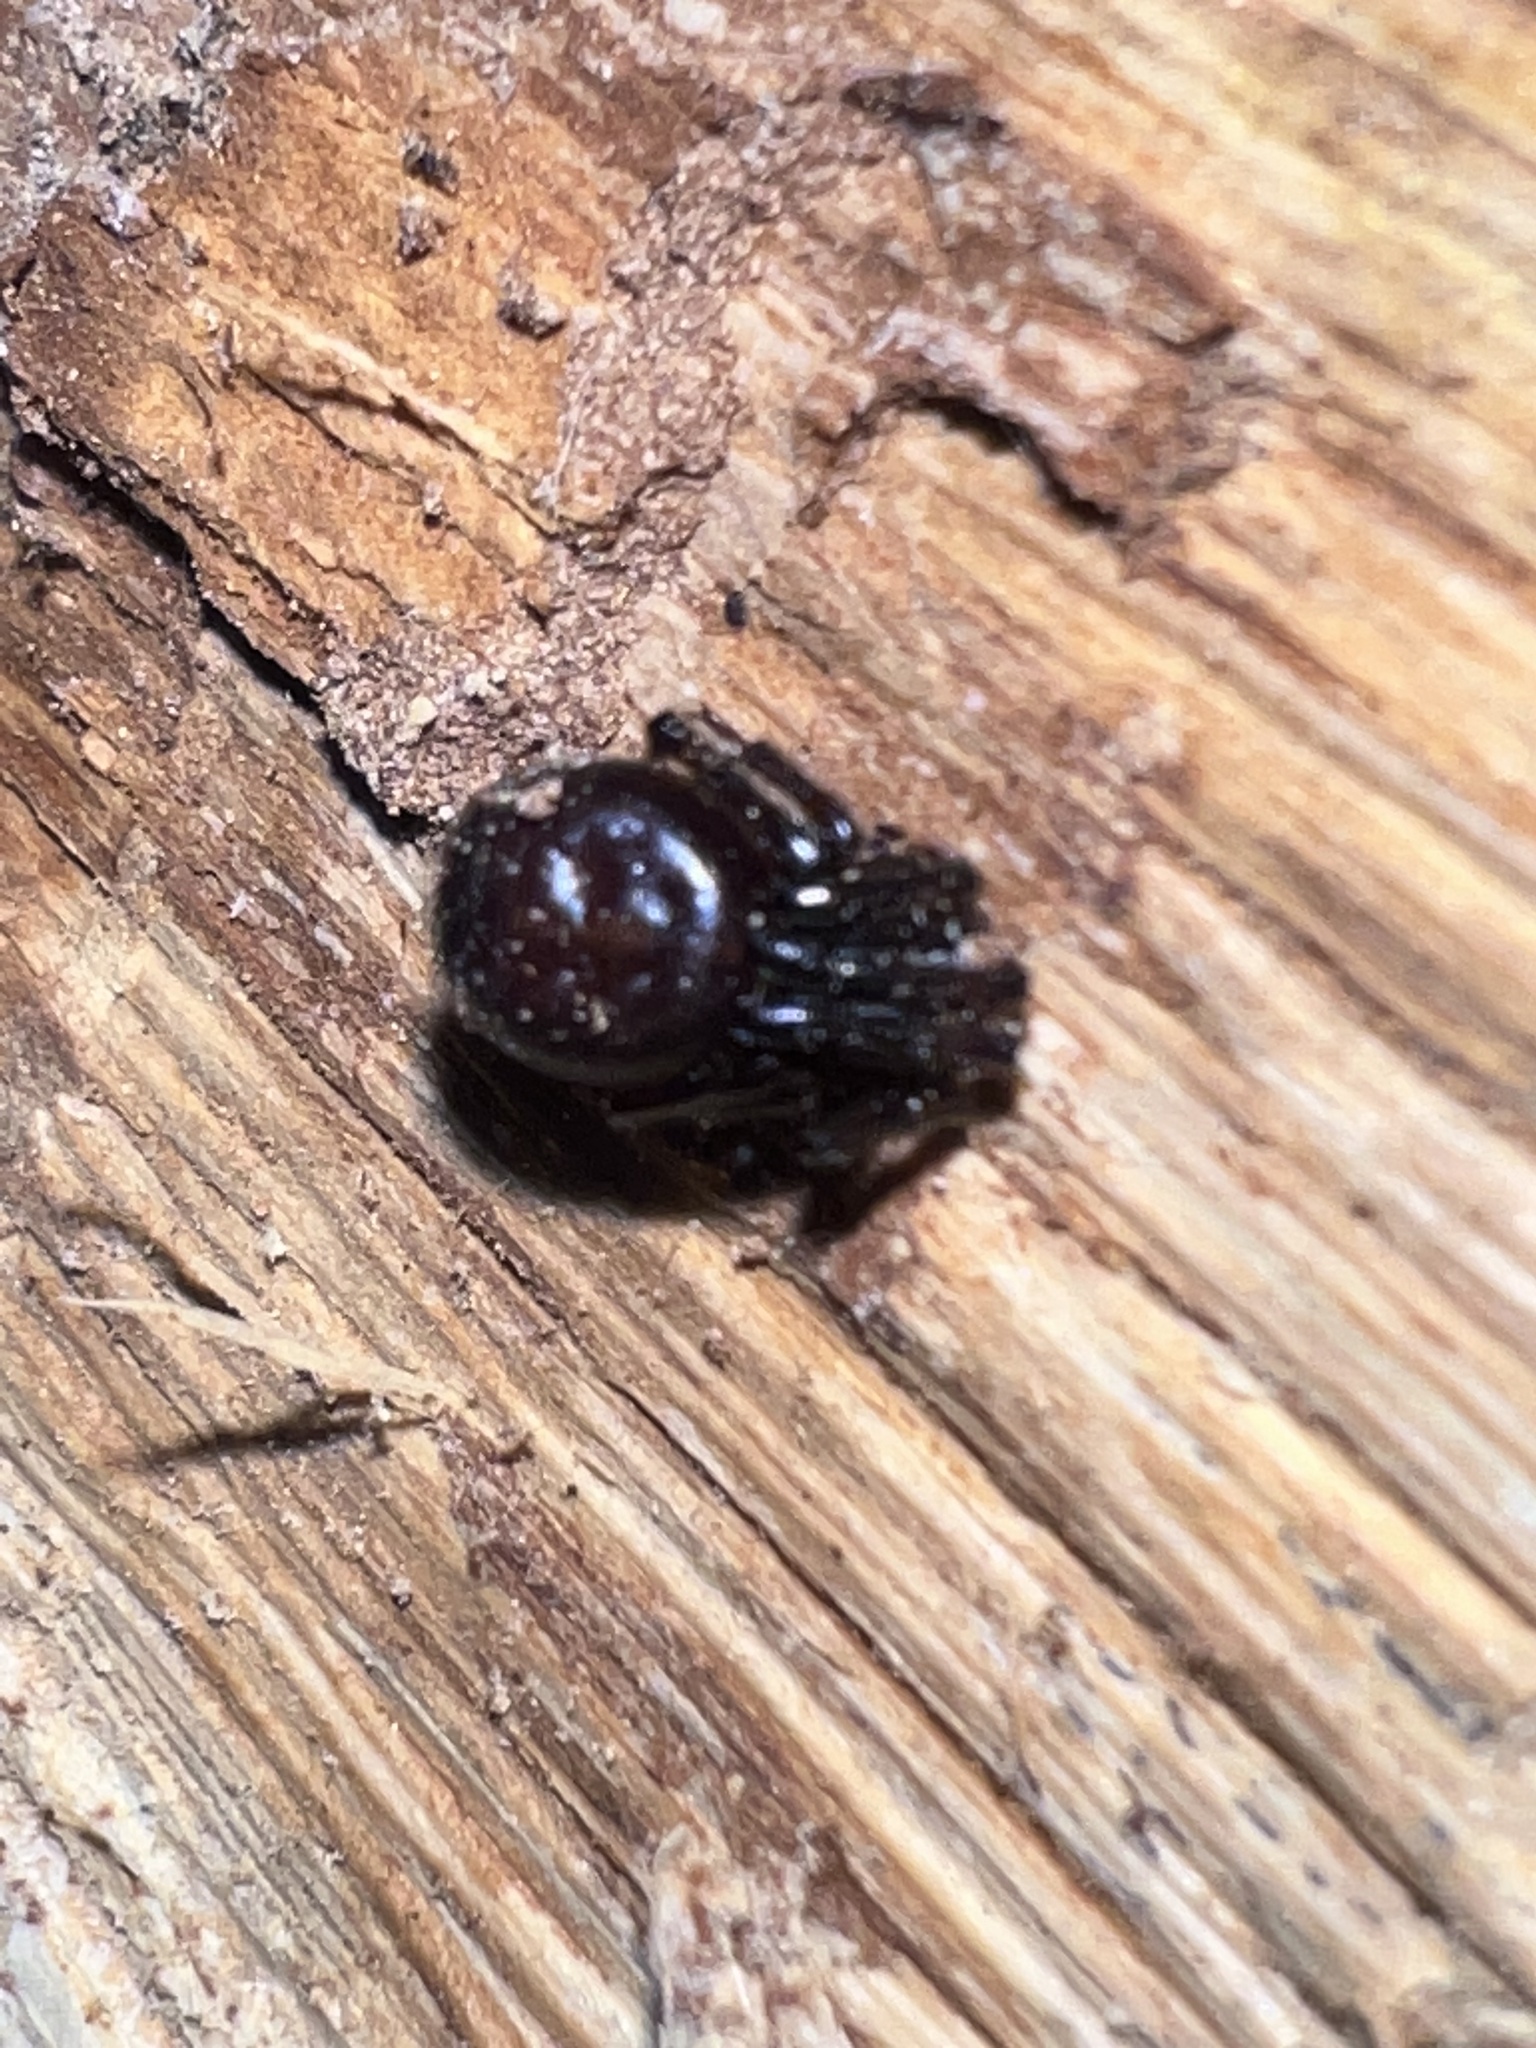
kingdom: Animalia
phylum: Arthropoda
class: Arachnida
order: Araneae
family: Theridiidae
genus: Steatoda
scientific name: Steatoda borealis
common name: Boreal combfoot
